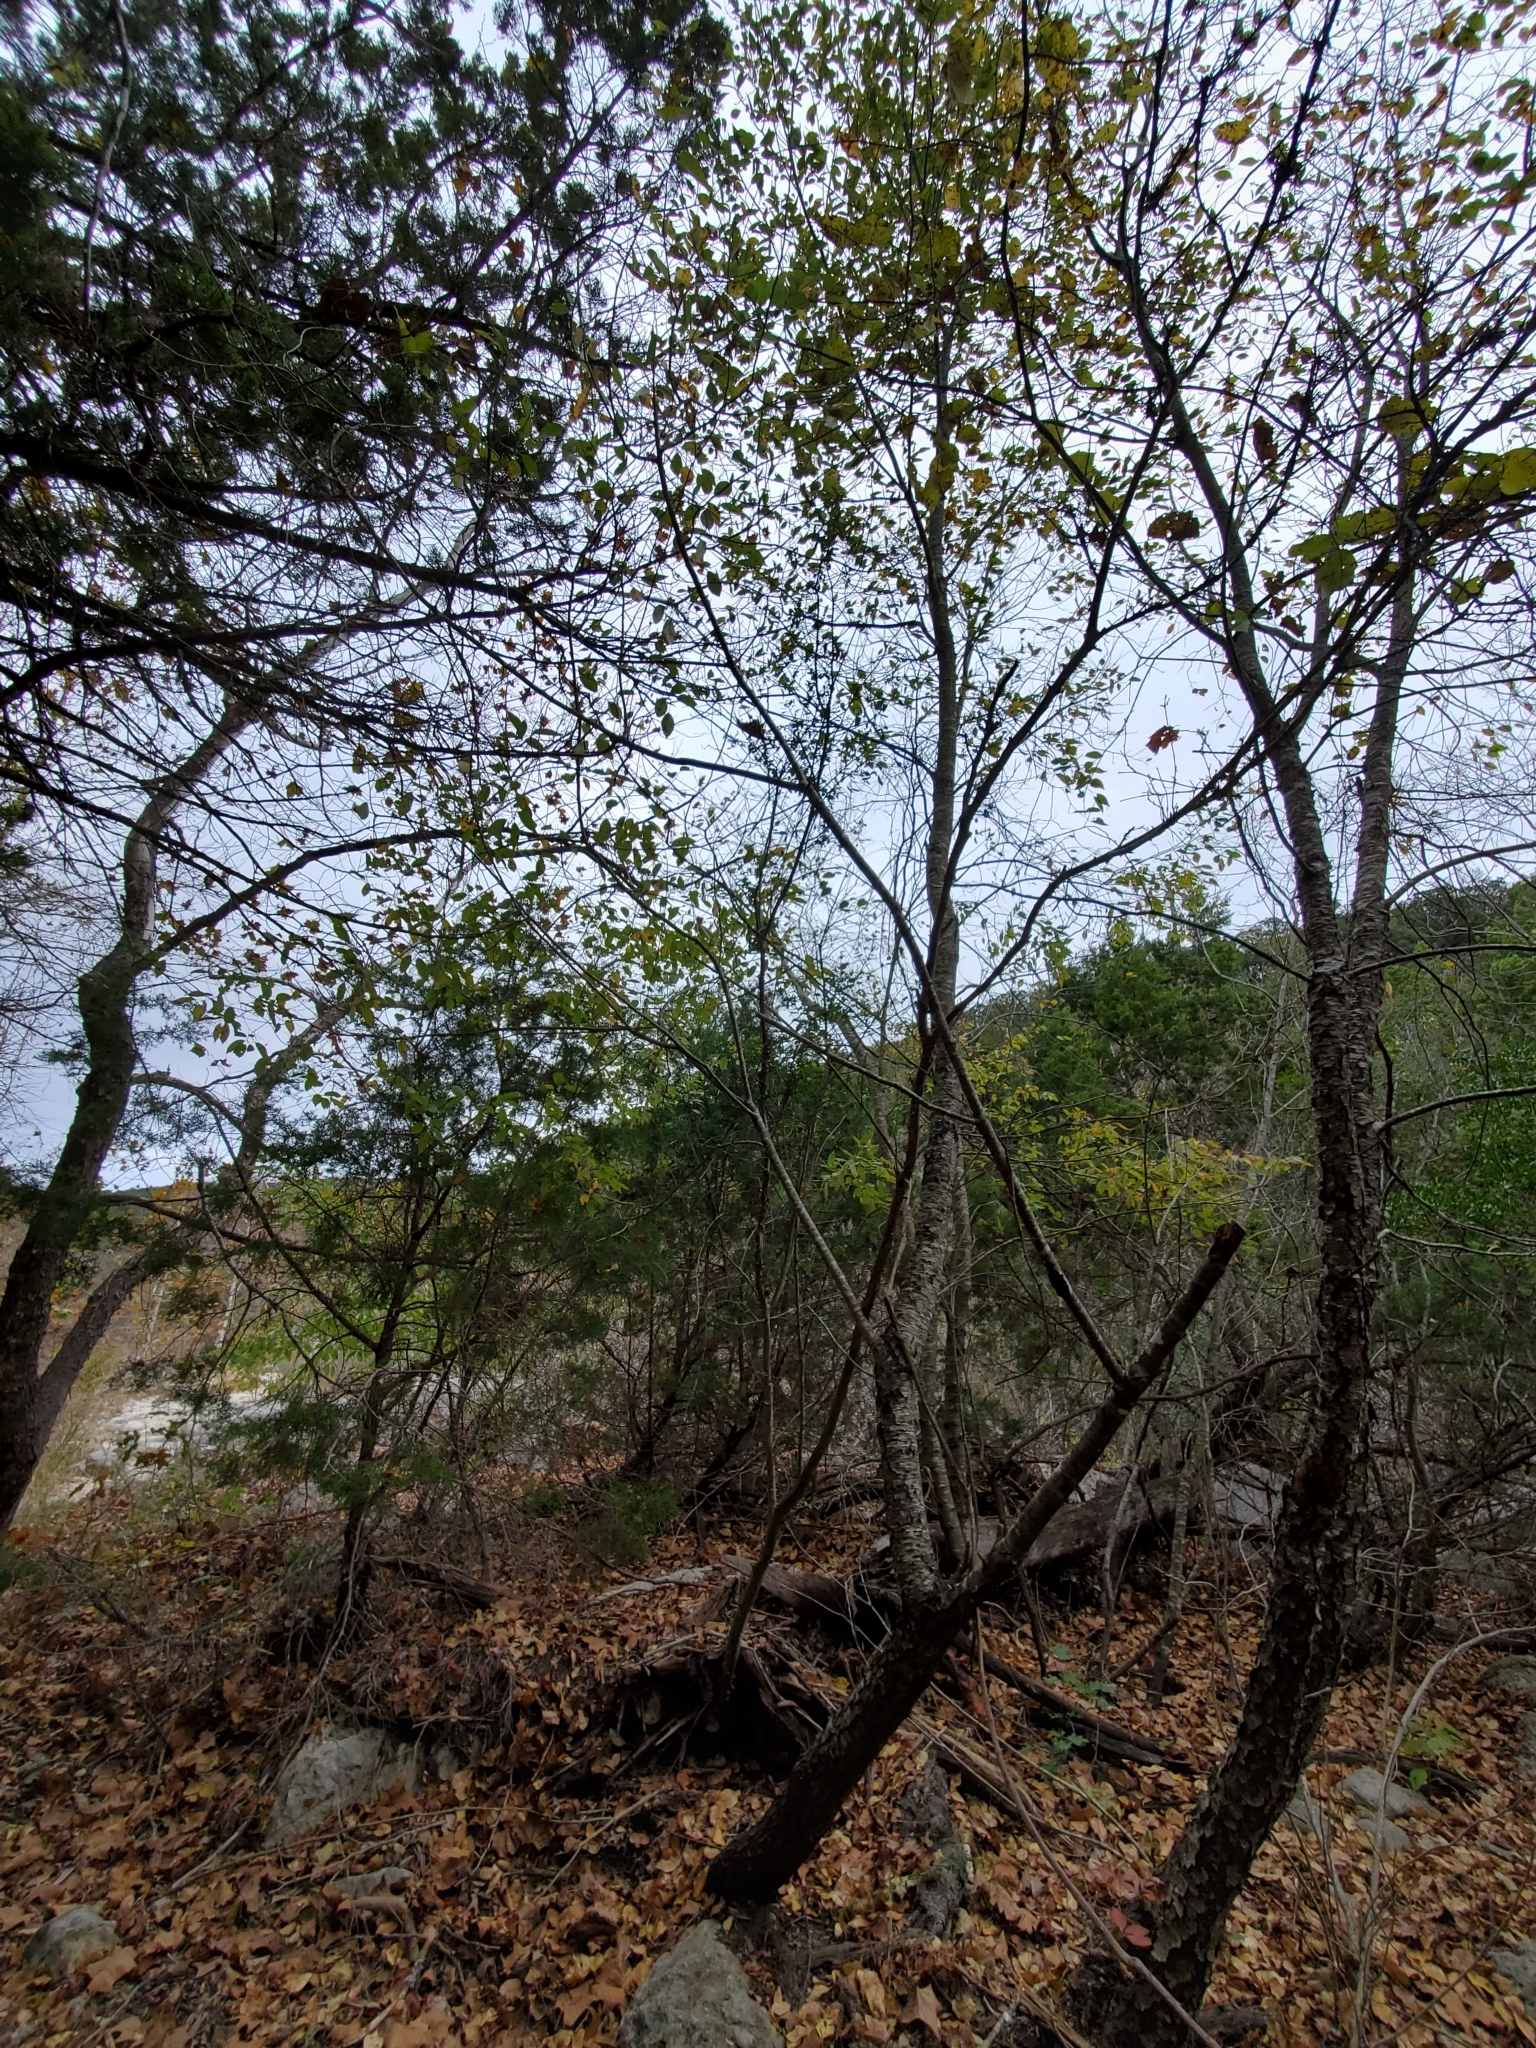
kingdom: Plantae
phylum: Tracheophyta
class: Magnoliopsida
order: Rosales
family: Rosaceae
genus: Prunus
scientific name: Prunus serotina
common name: Black cherry
